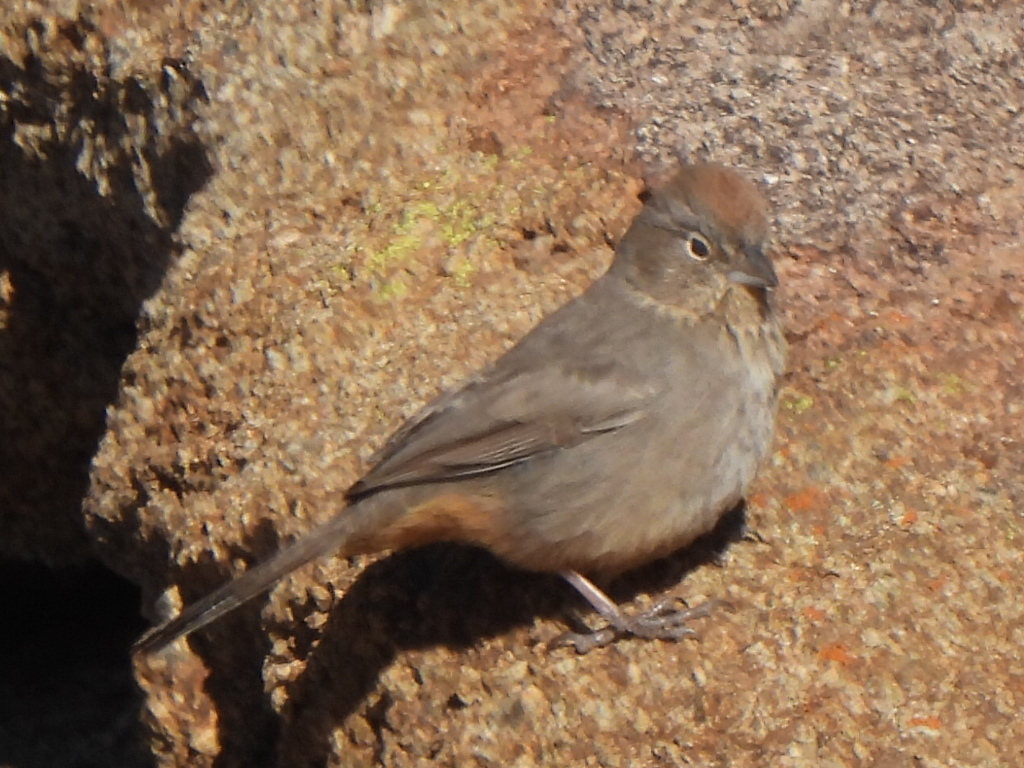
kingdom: Animalia
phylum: Chordata
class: Aves
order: Passeriformes
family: Passerellidae
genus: Melozone
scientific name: Melozone fusca
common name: Canyon towhee
